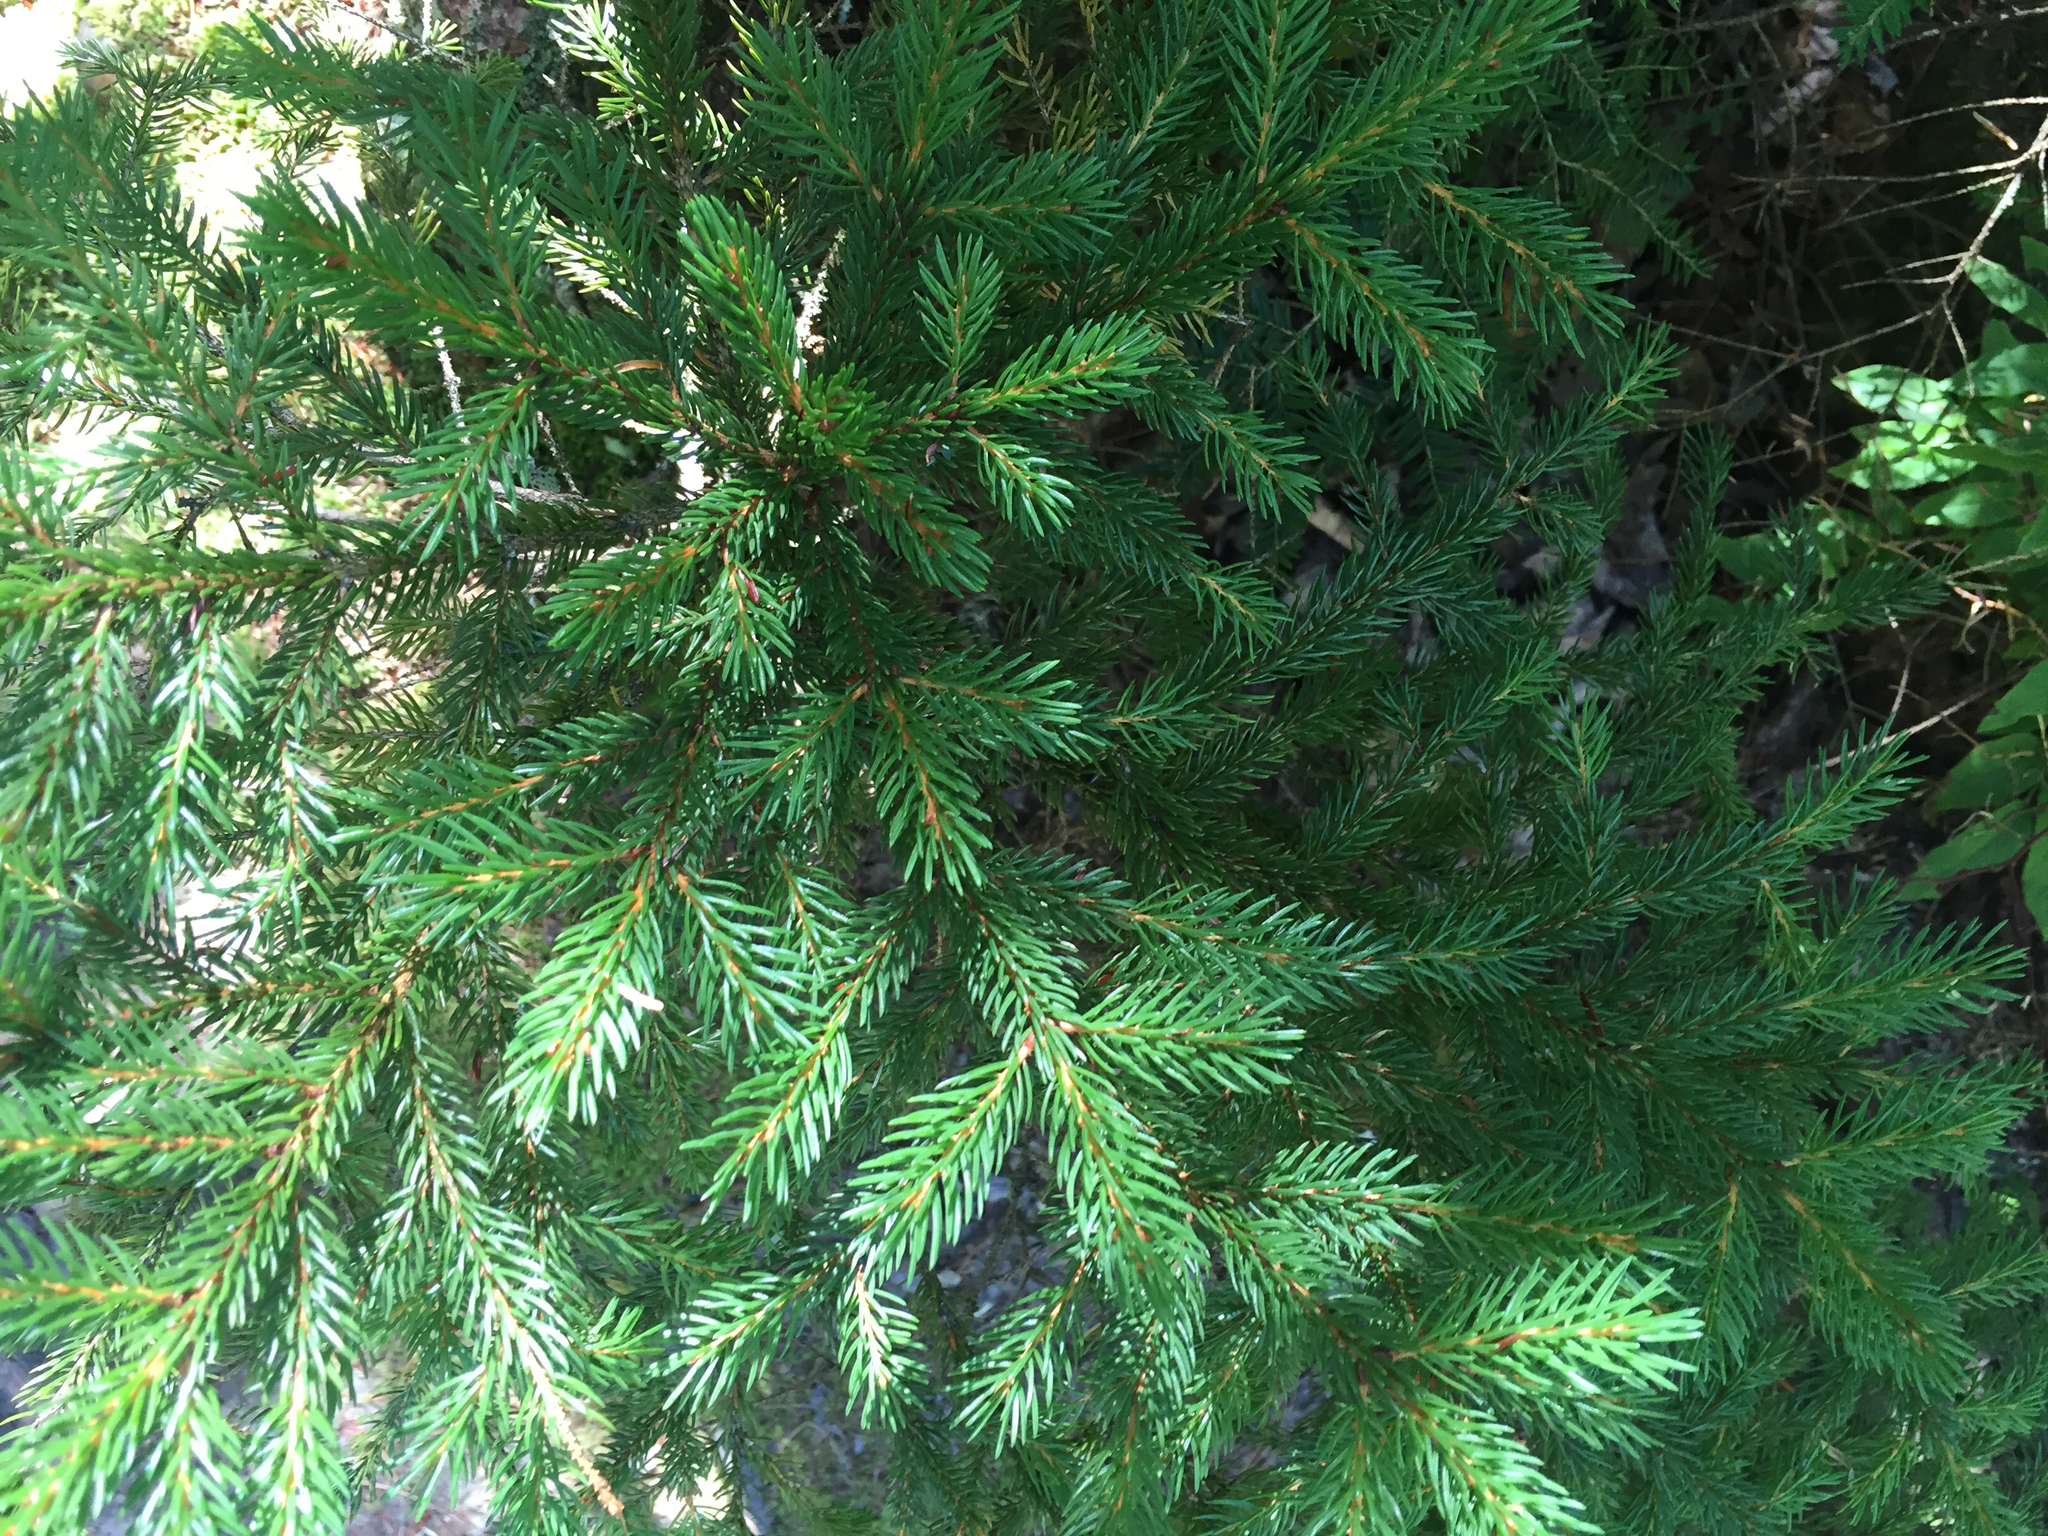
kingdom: Plantae
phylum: Tracheophyta
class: Pinopsida
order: Pinales
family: Pinaceae
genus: Picea
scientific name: Picea rubens
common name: Red spruce
